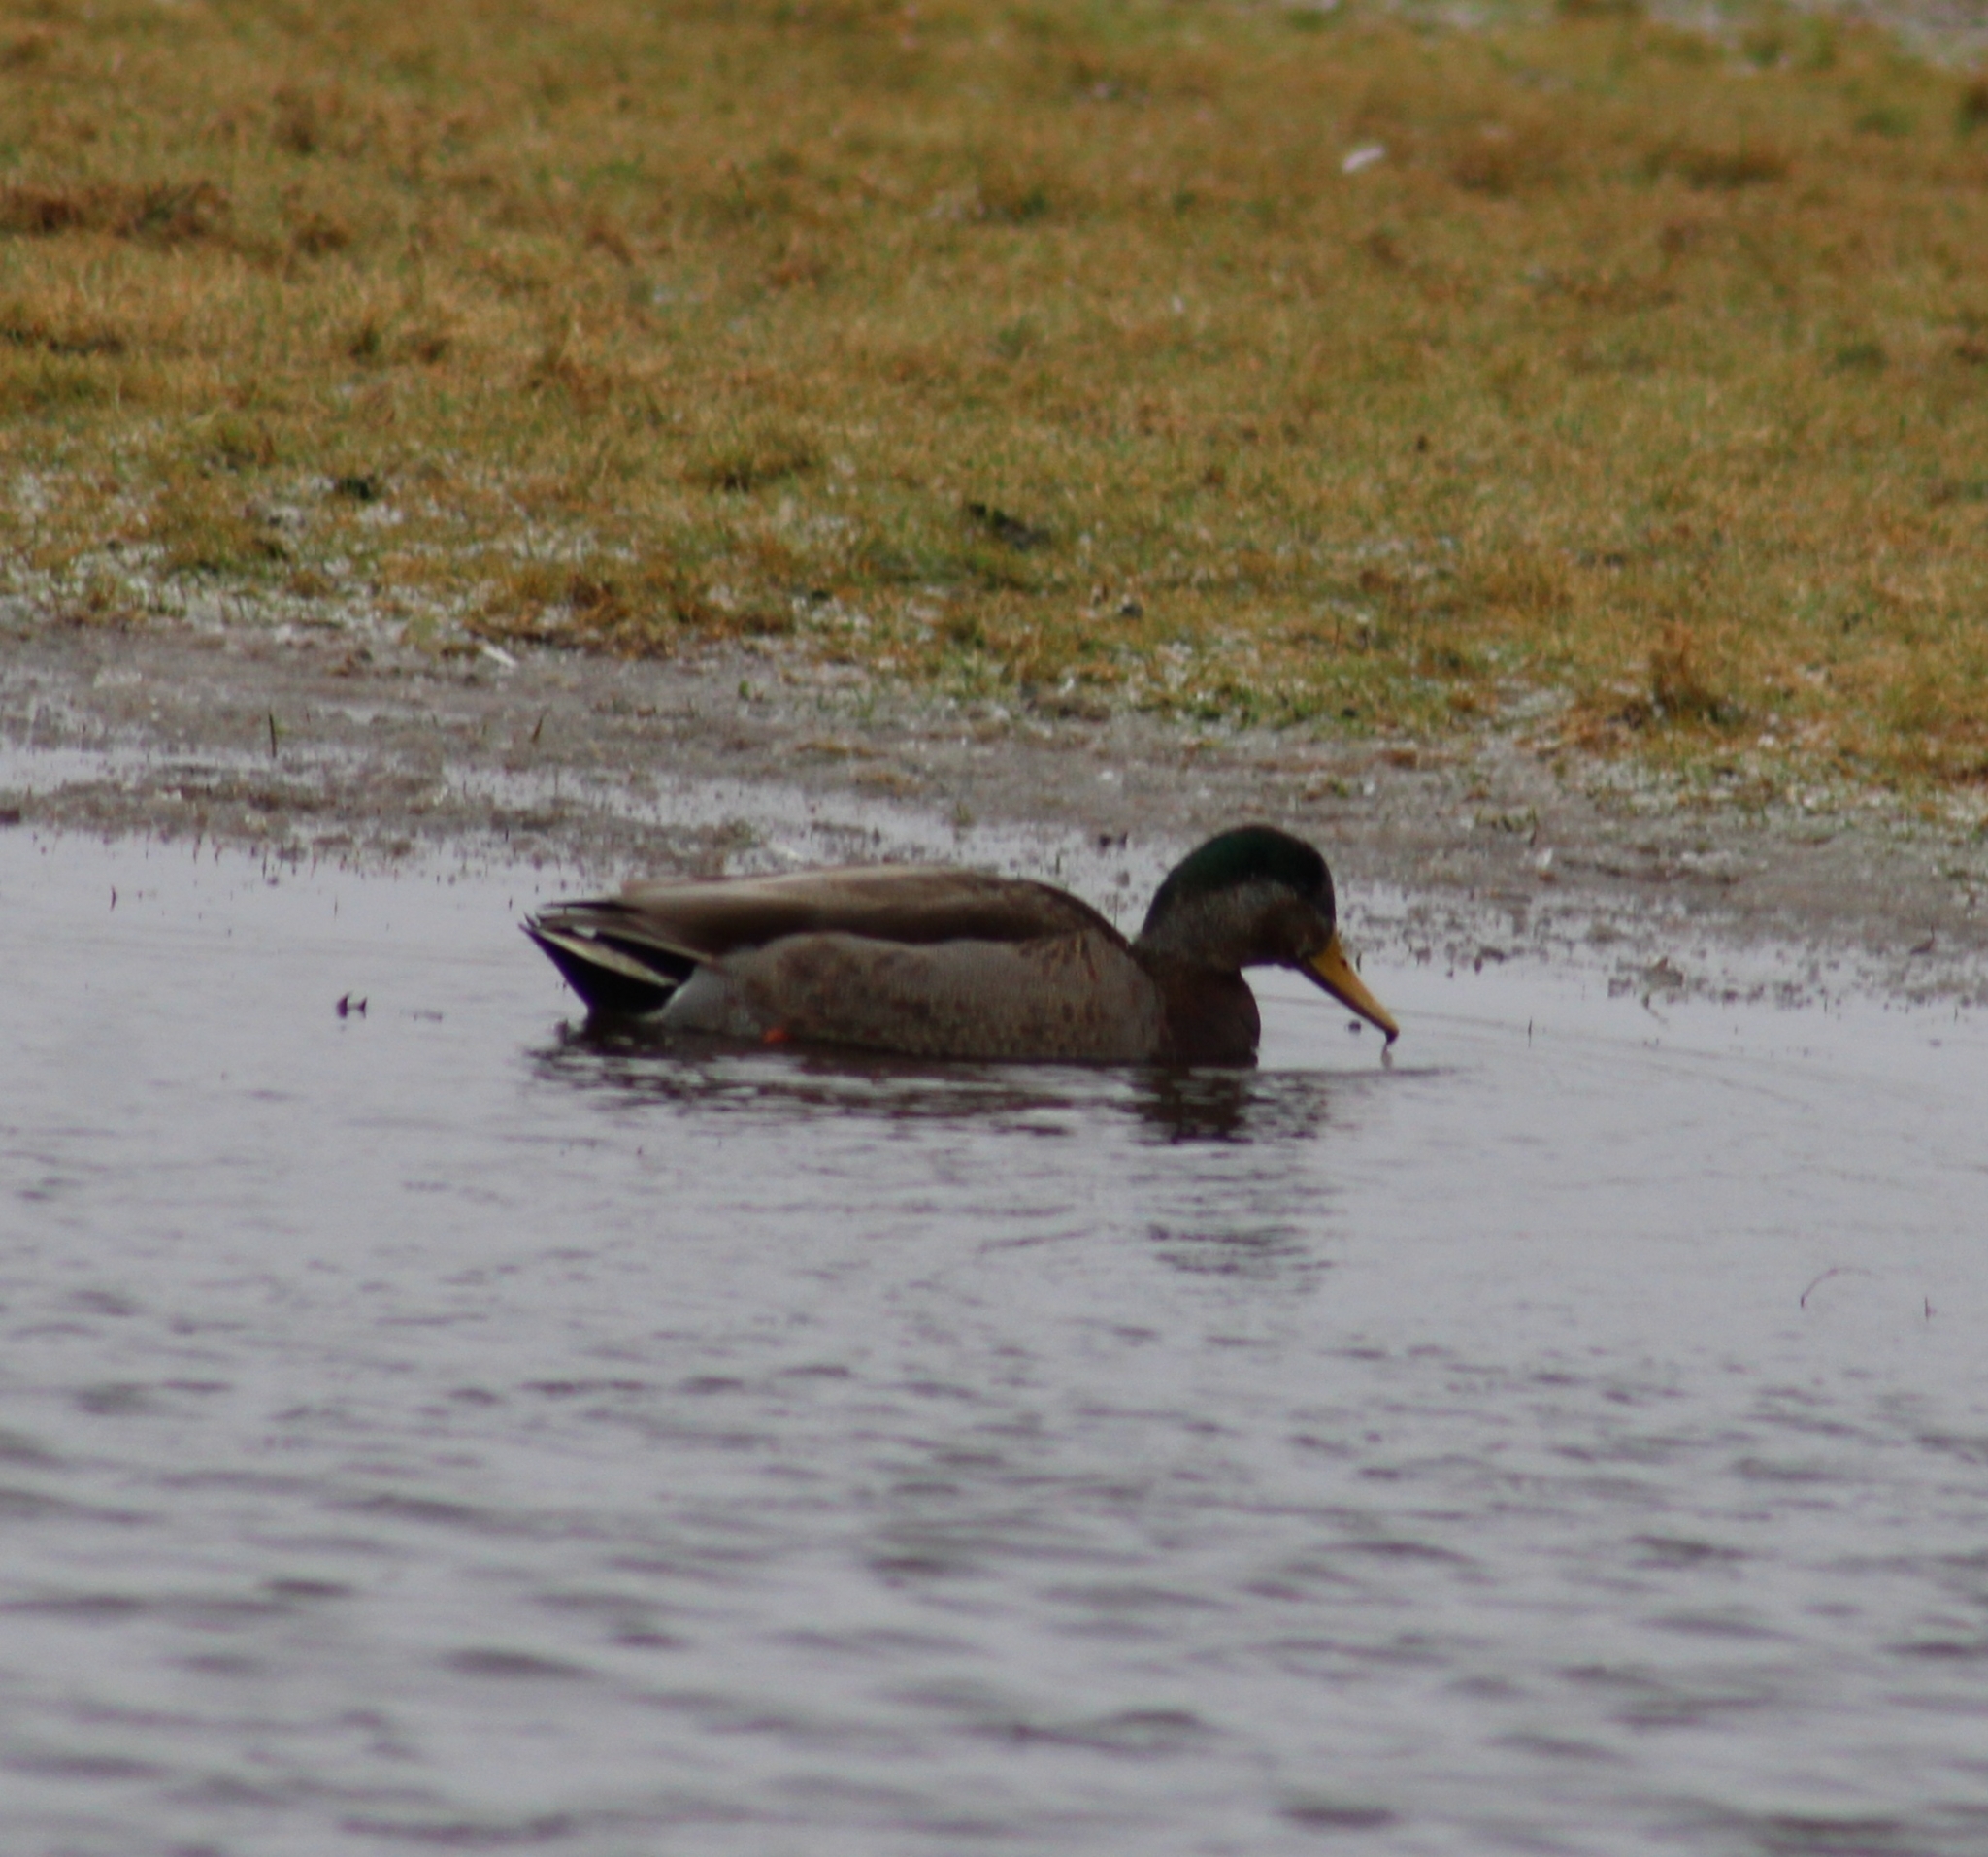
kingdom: Animalia
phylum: Chordata
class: Aves
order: Anseriformes
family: Anatidae
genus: Anas
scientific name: Anas
